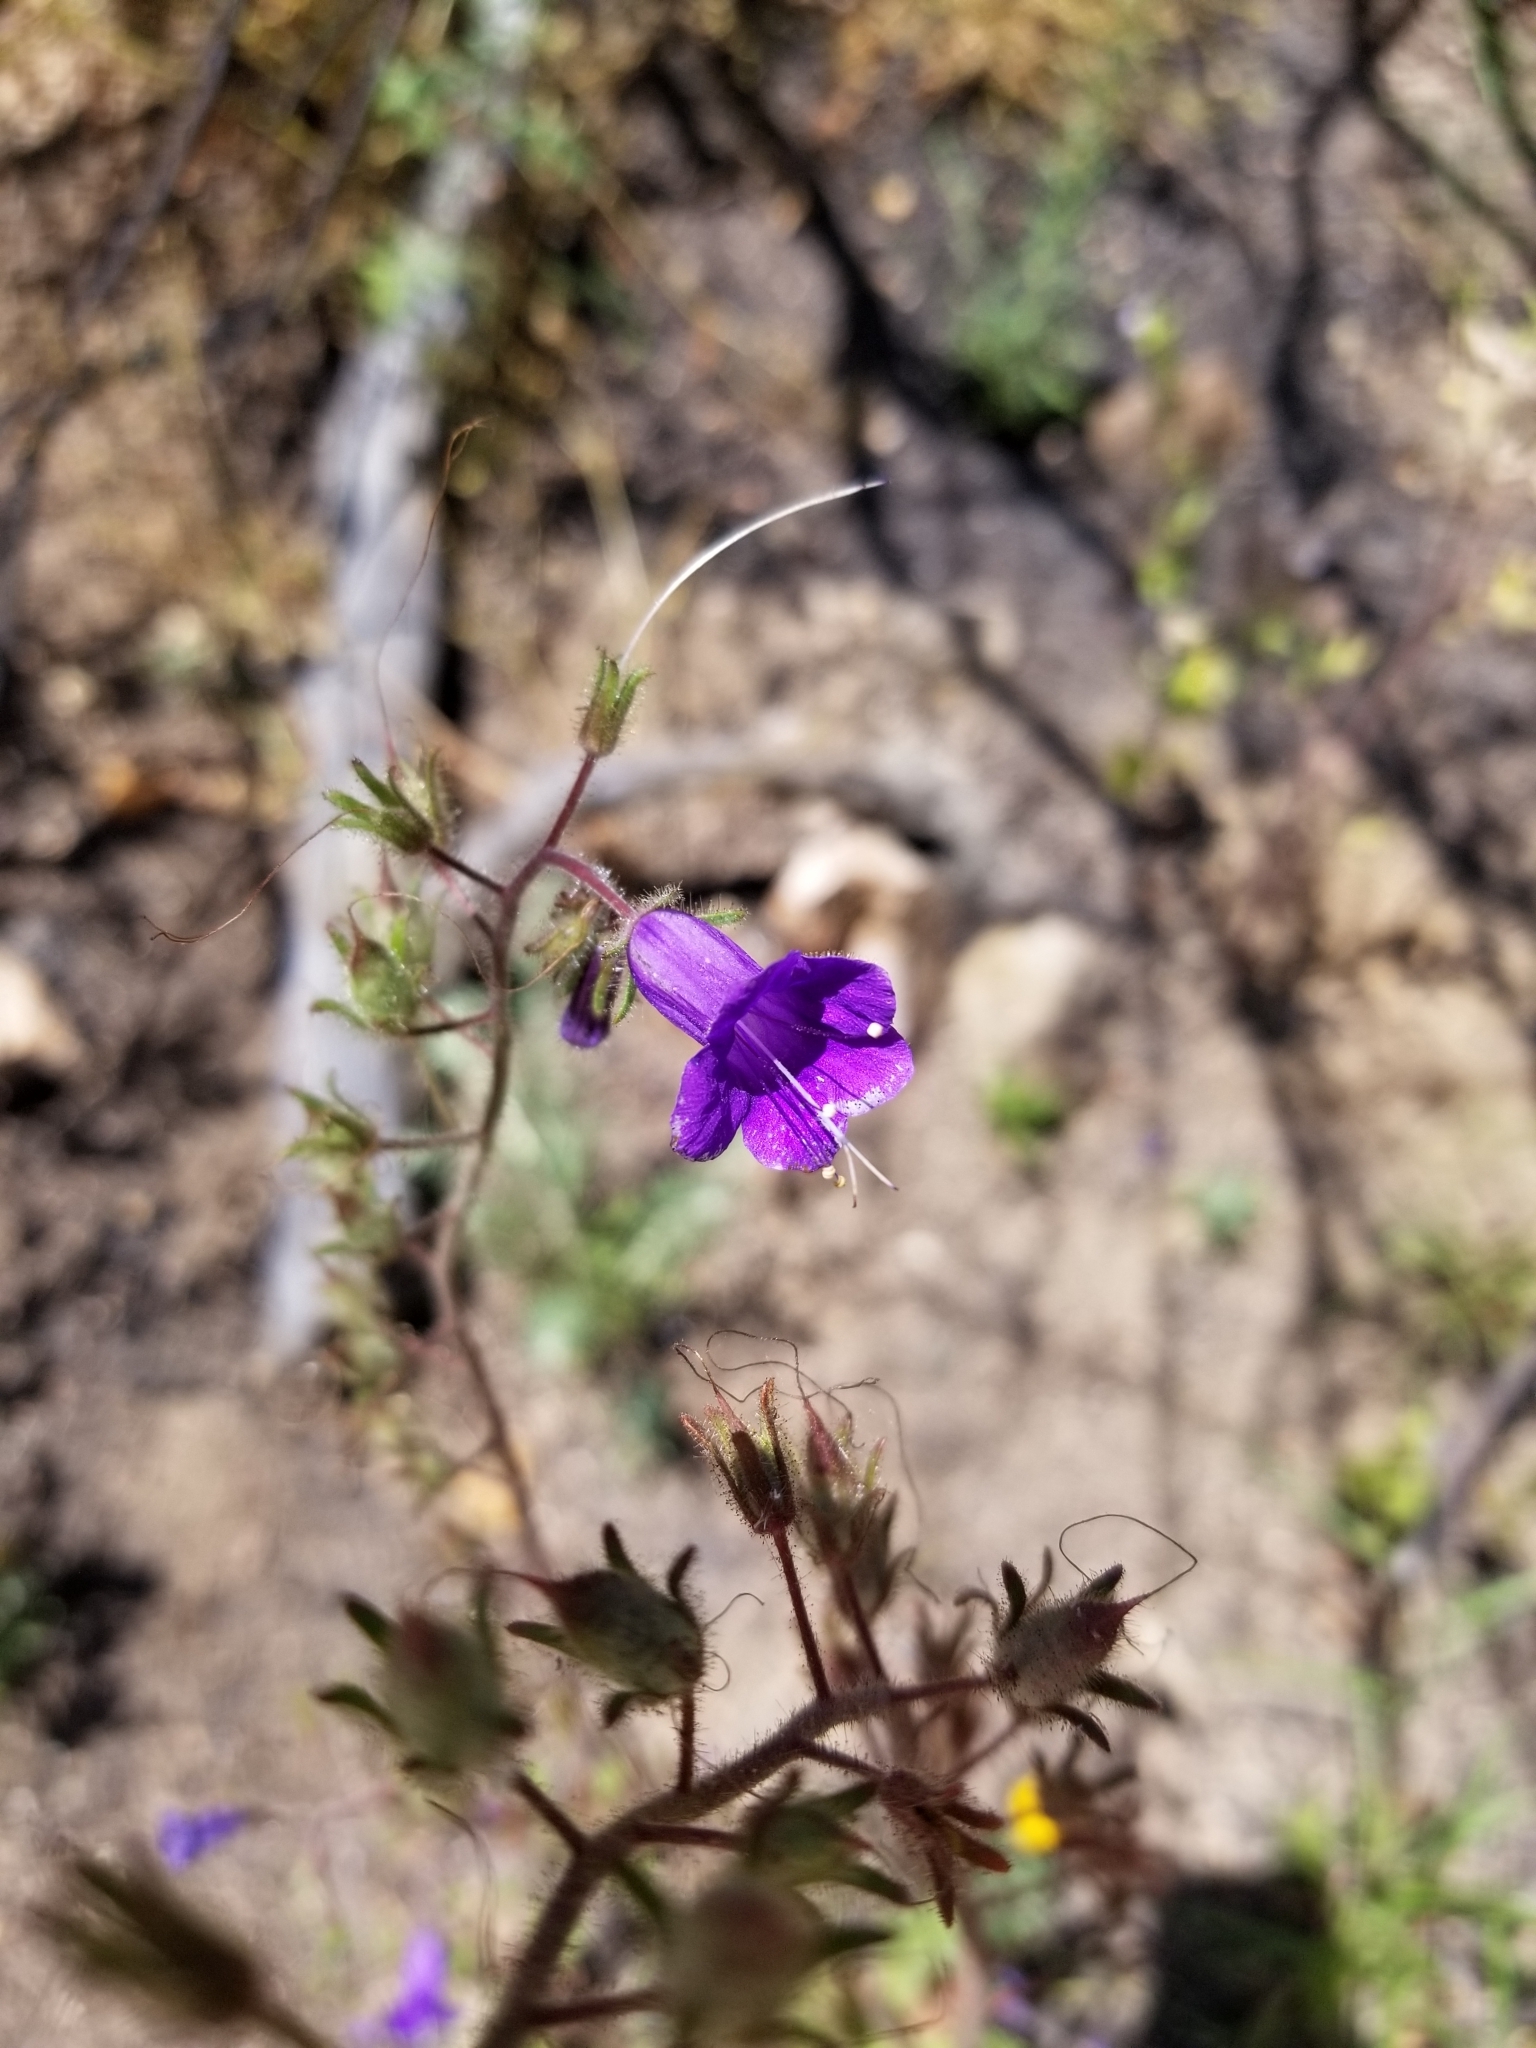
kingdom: Plantae
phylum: Tracheophyta
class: Magnoliopsida
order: Boraginales
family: Hydrophyllaceae
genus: Phacelia
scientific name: Phacelia minor
